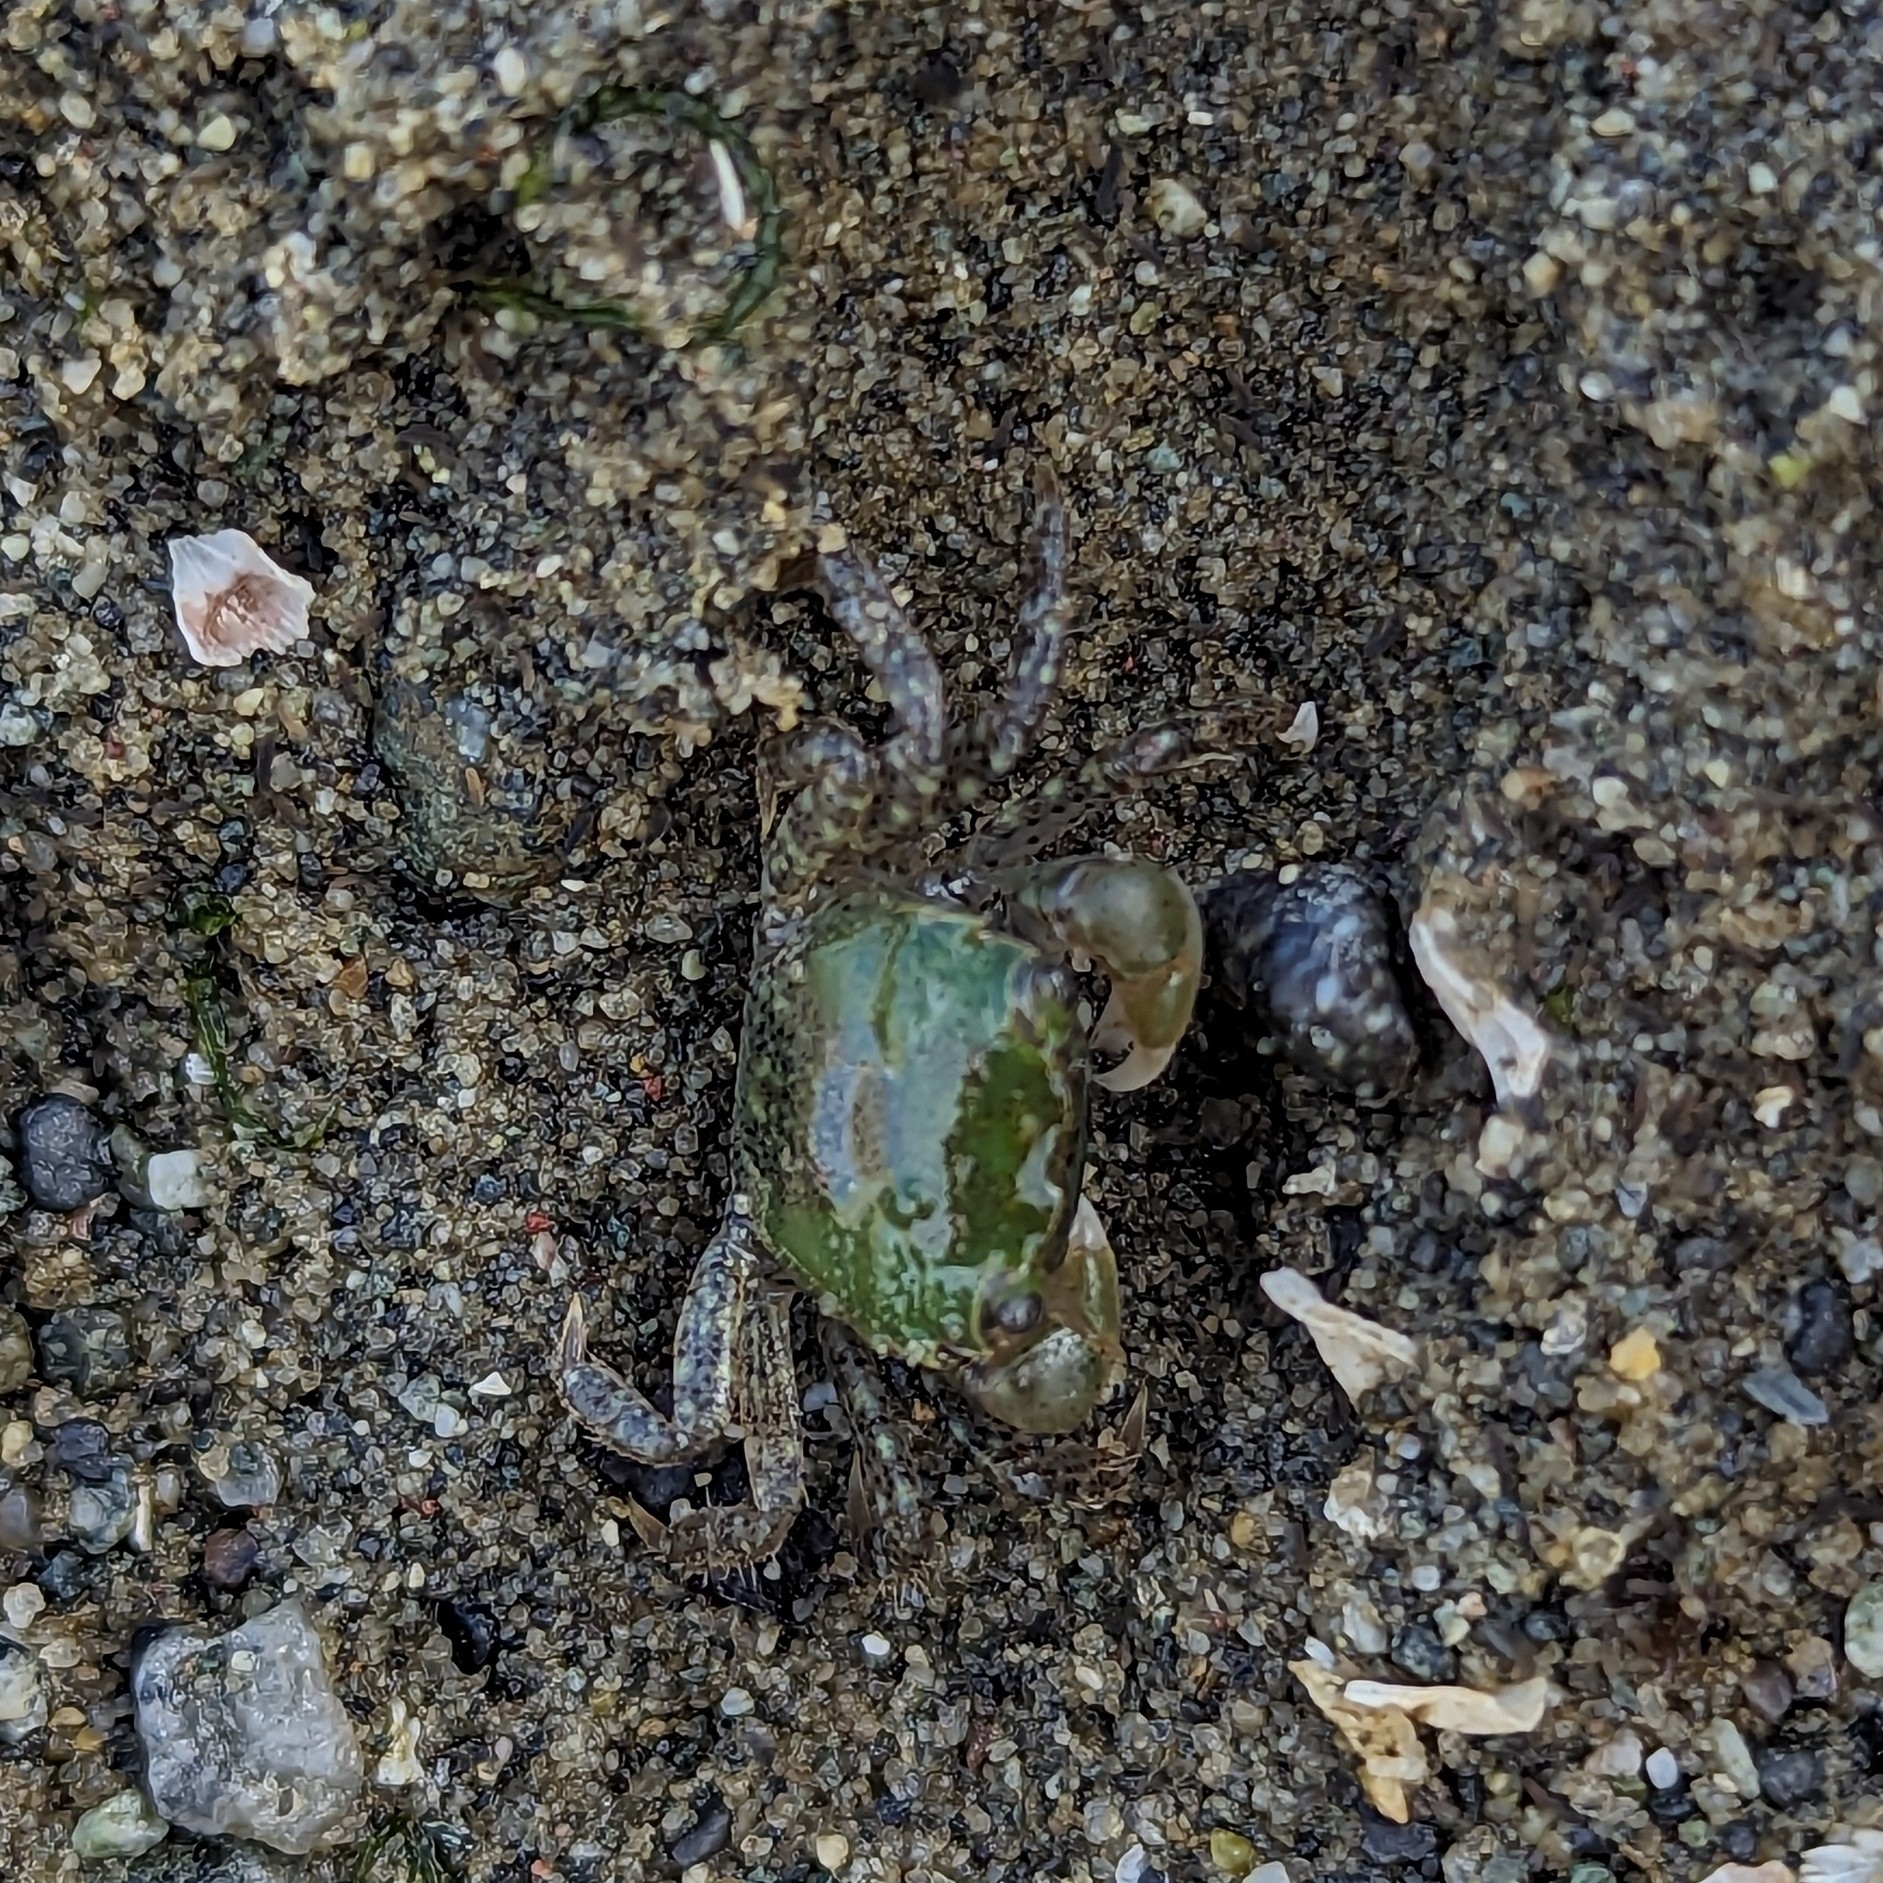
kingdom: Animalia
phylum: Arthropoda
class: Malacostraca
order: Decapoda
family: Varunidae
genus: Hemigrapsus
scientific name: Hemigrapsus oregonensis
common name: Yellow shore crab
